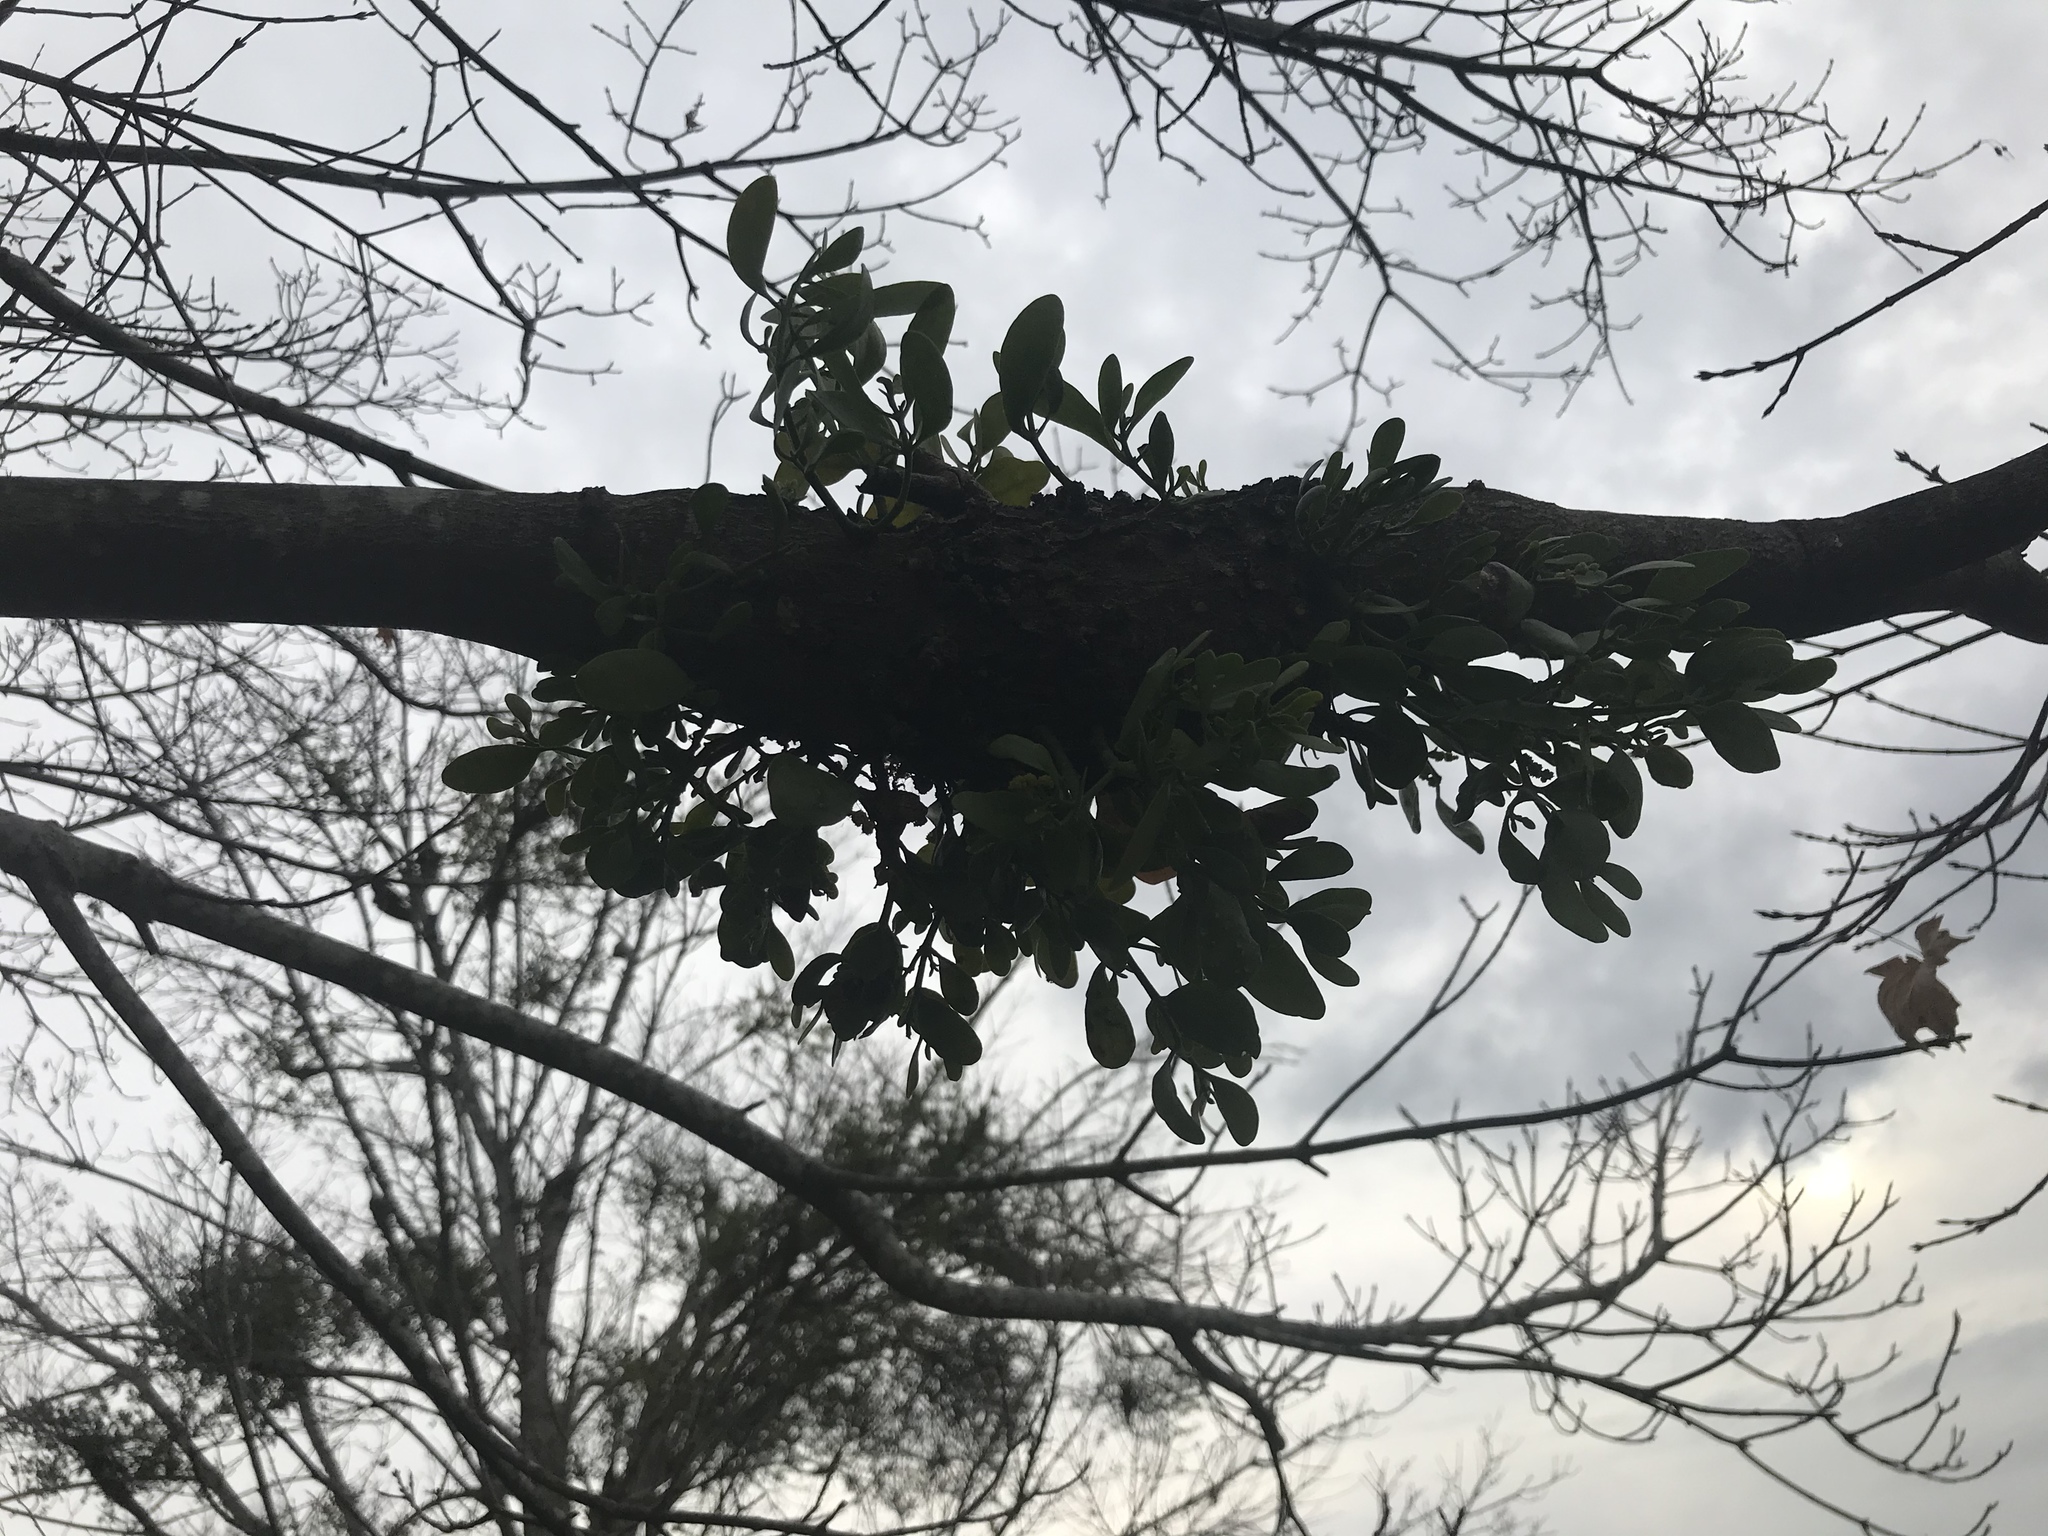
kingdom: Plantae
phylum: Tracheophyta
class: Magnoliopsida
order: Santalales
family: Viscaceae
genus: Phoradendron
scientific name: Phoradendron leucarpum
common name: Pacific mistletoe
